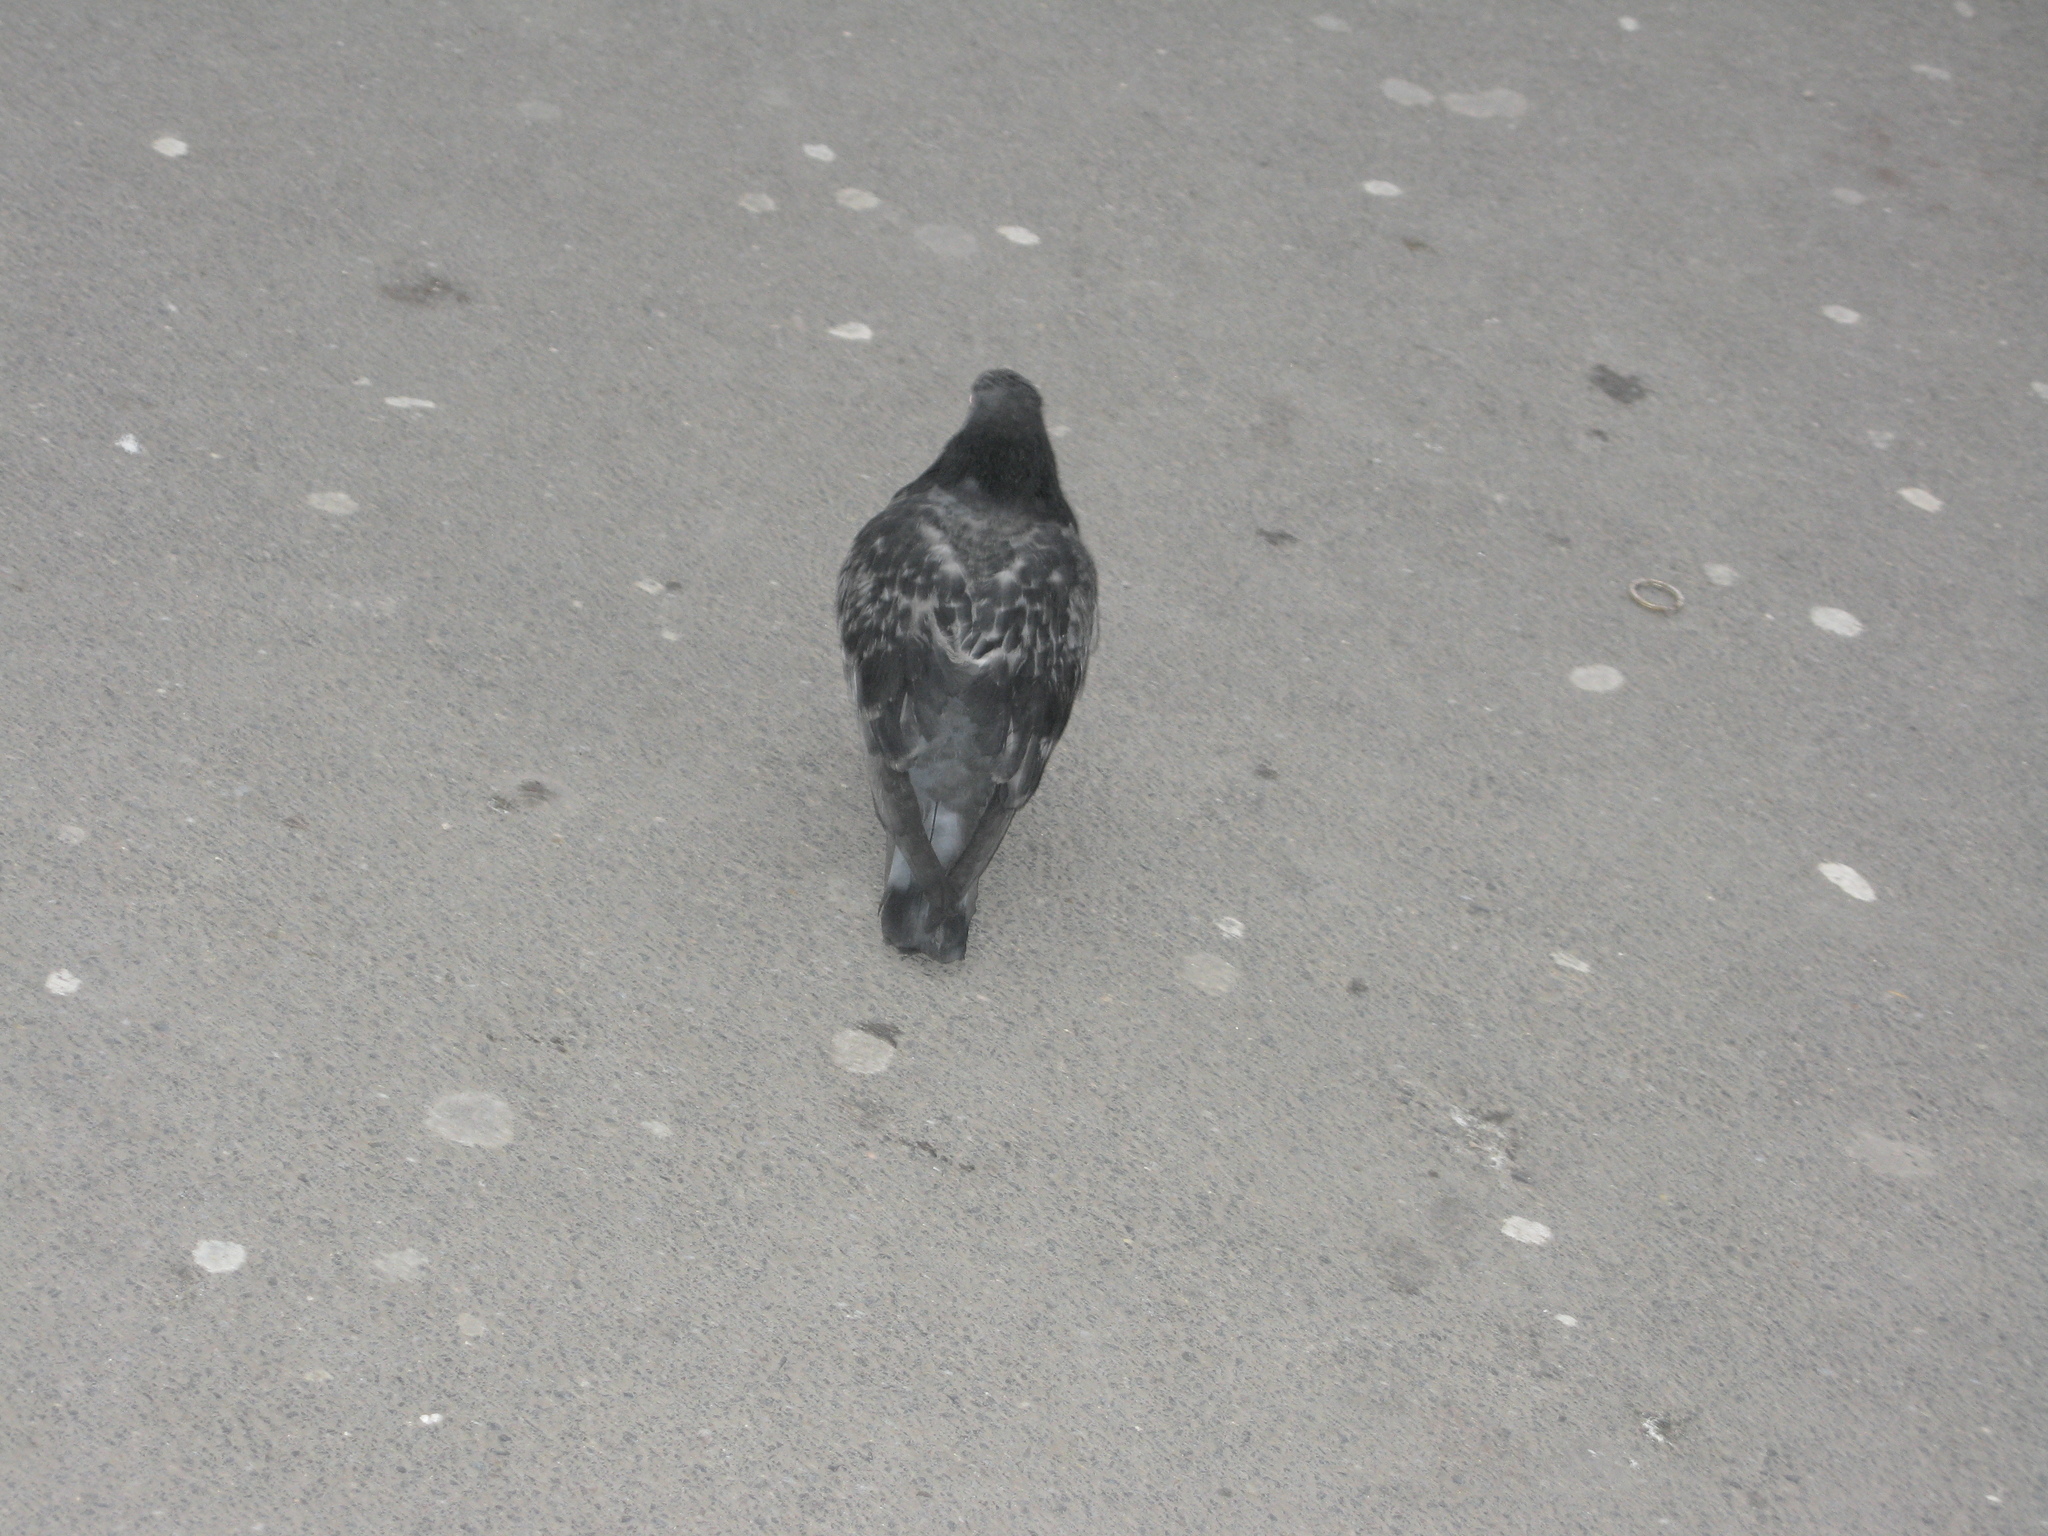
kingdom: Animalia
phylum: Chordata
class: Aves
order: Columbiformes
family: Columbidae
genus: Columba
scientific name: Columba livia
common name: Rock pigeon
